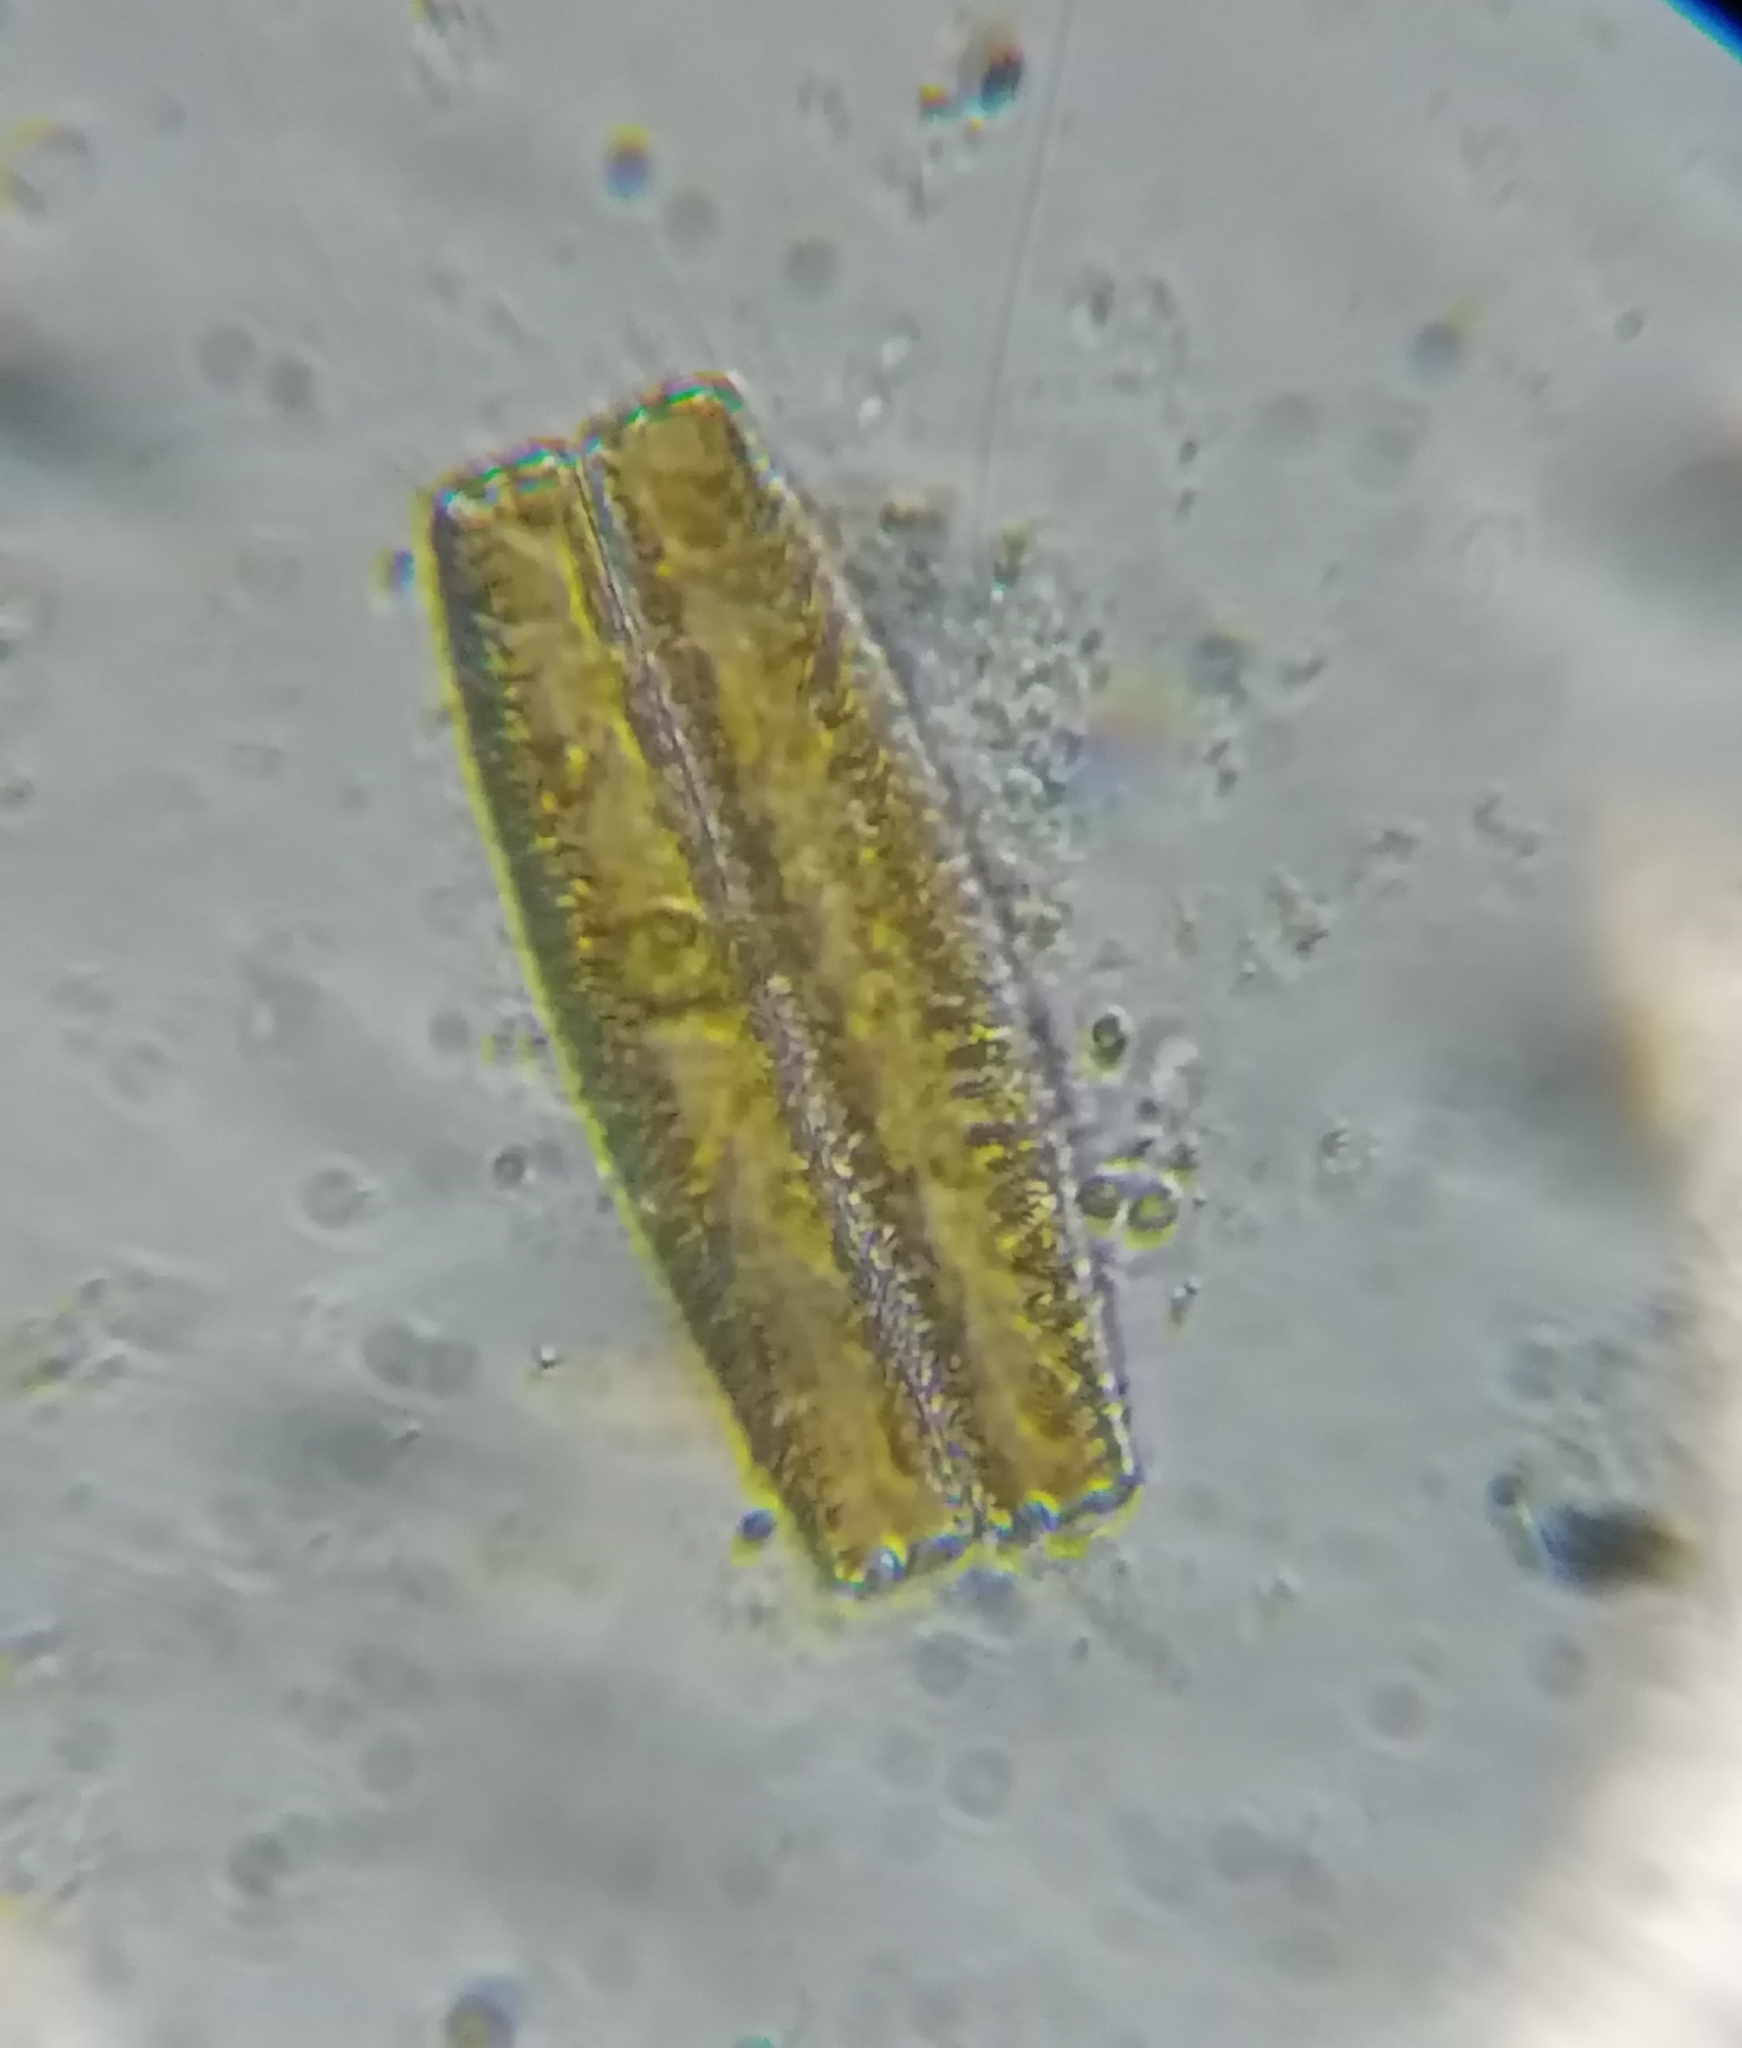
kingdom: Chromista
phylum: Ochrophyta
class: Bacillariophyceae
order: Rhopalodiales
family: Rhopalodiaceae
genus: Epithemia
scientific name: Epithemia
